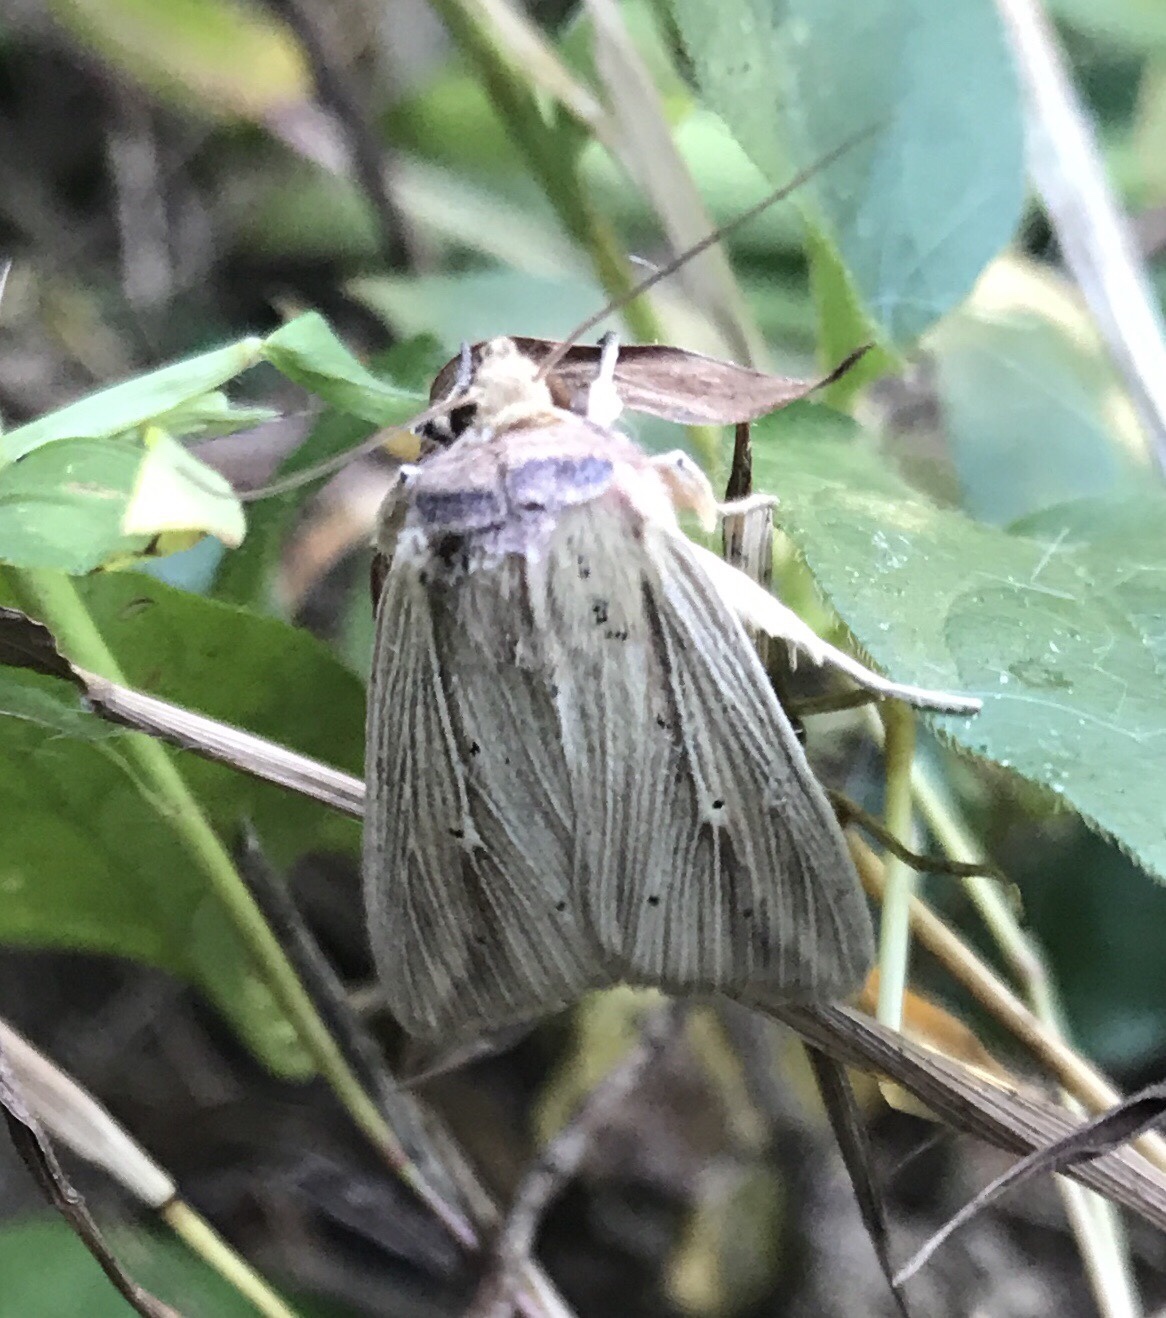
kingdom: Animalia
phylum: Arthropoda
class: Insecta
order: Lepidoptera
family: Noctuidae
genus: Leucania
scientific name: Leucania adjuta
